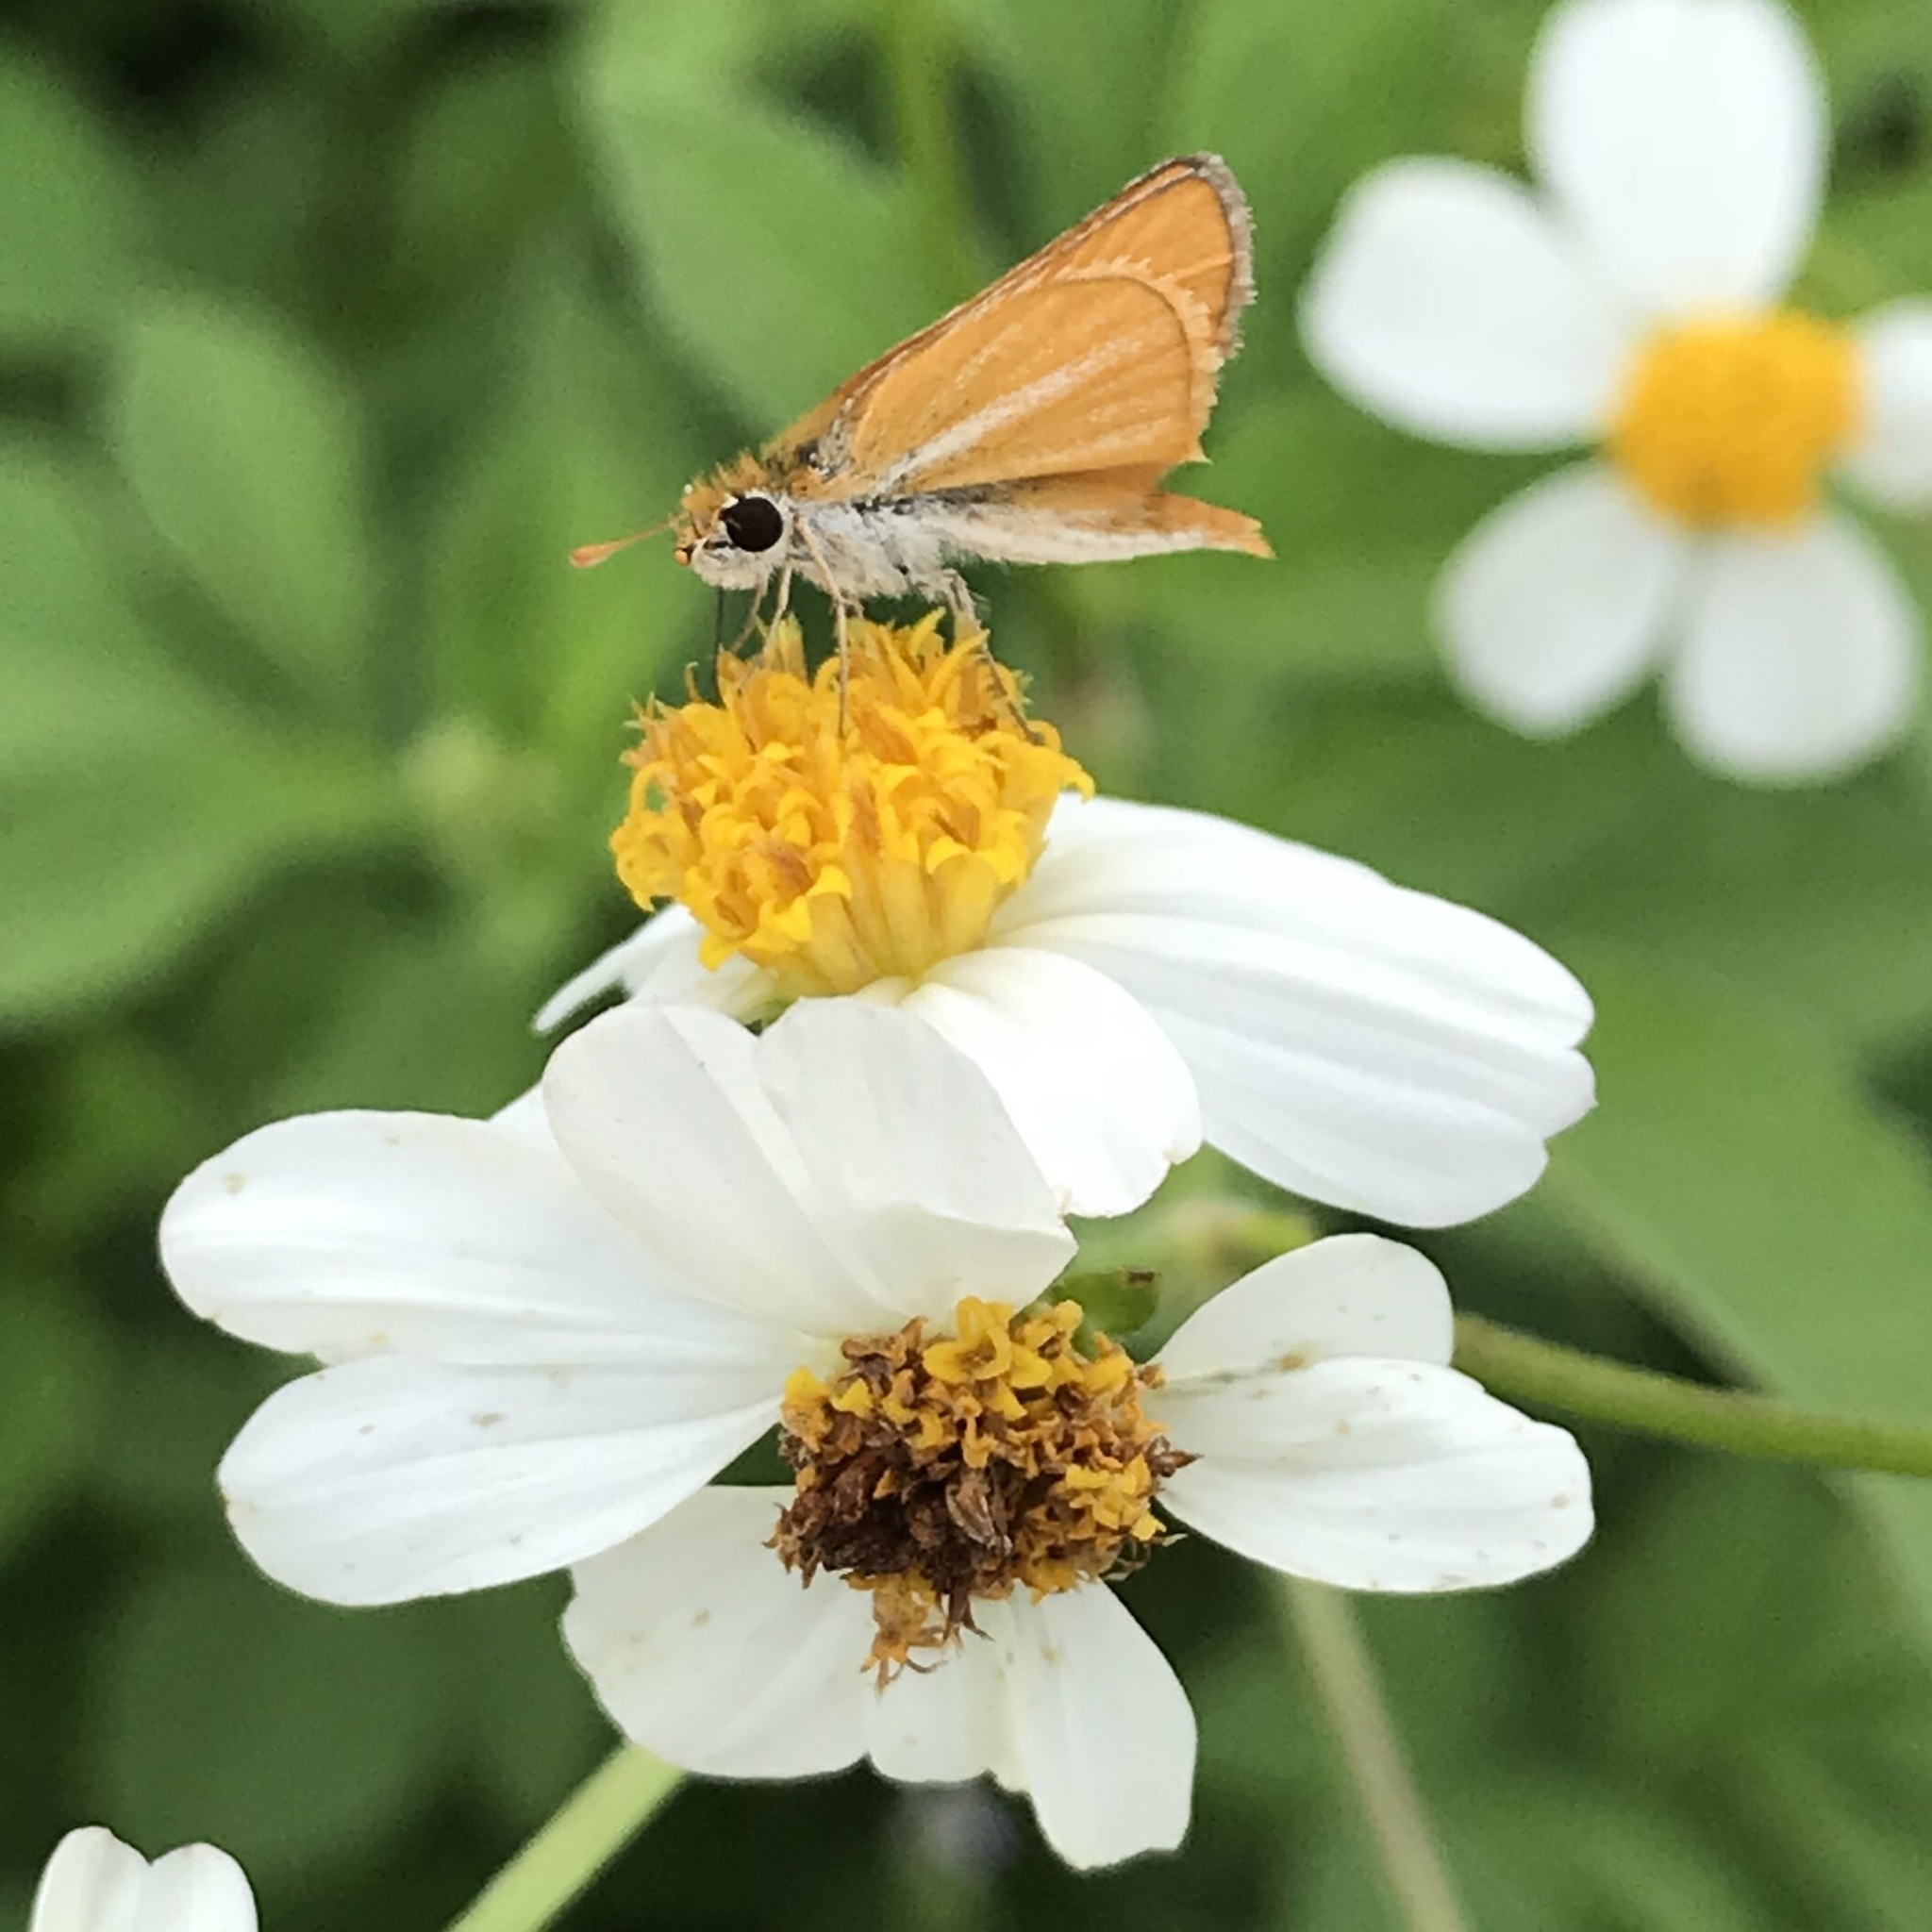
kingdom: Animalia
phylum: Arthropoda
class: Insecta
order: Lepidoptera
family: Hesperiidae
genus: Copaeodes
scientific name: Copaeodes minima
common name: Southern skipperling
